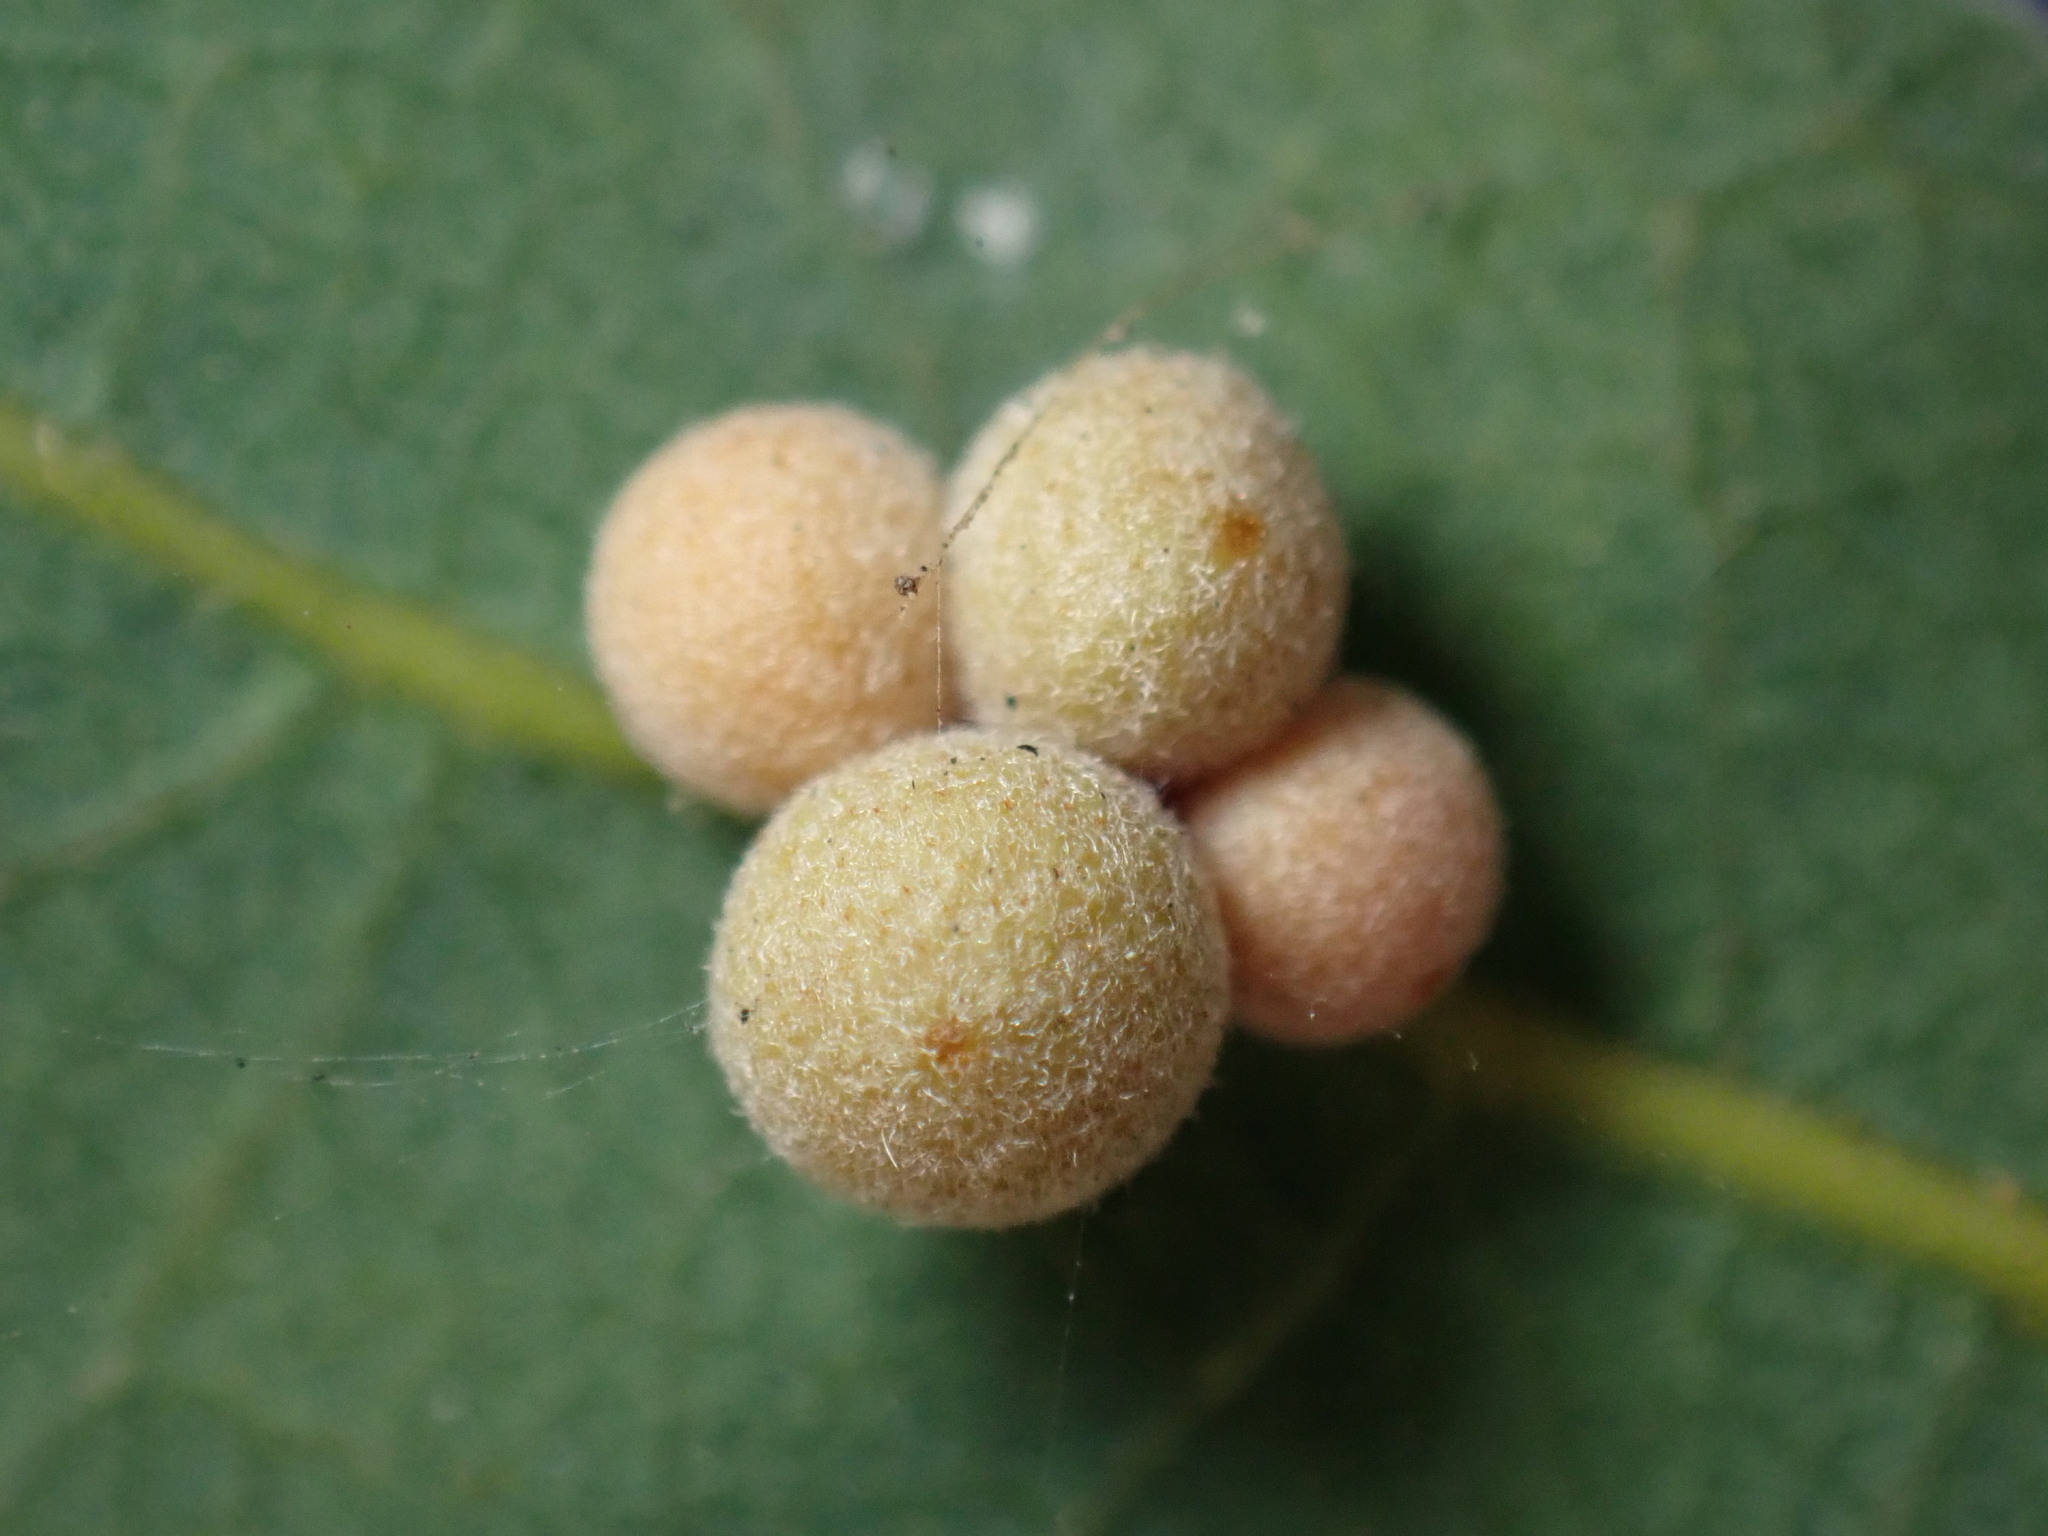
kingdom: Animalia
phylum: Arthropoda
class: Insecta
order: Hymenoptera
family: Cynipidae
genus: Andricus
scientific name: Andricus
